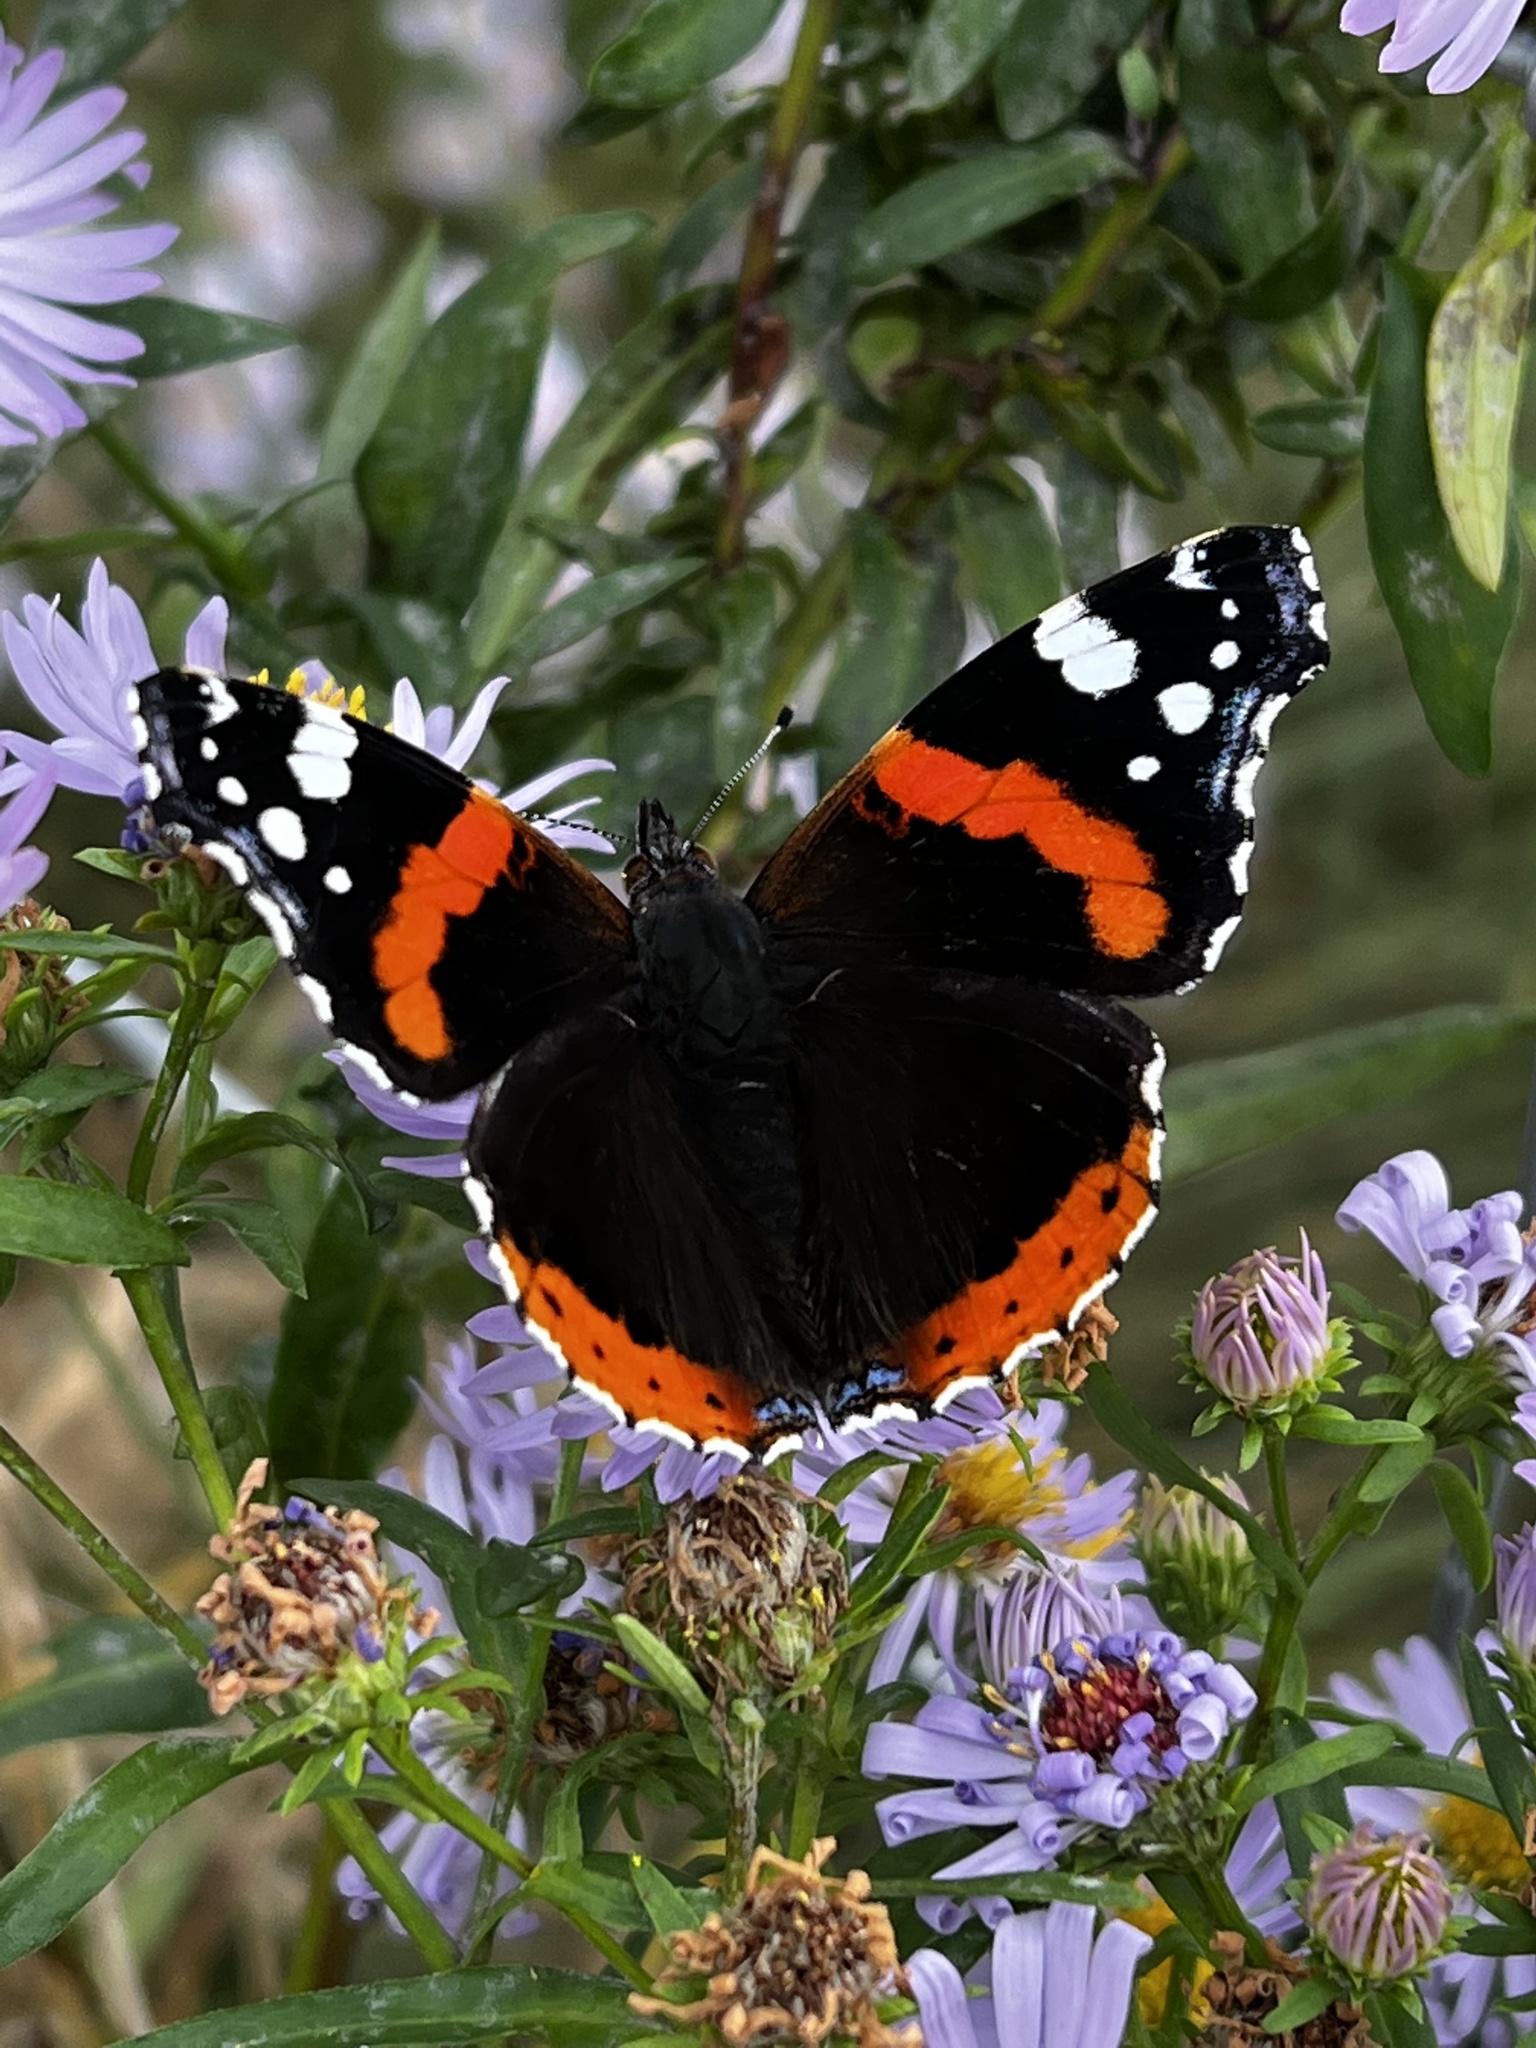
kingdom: Animalia
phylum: Arthropoda
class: Insecta
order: Lepidoptera
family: Nymphalidae
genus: Vanessa
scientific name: Vanessa atalanta
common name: Red admiral
